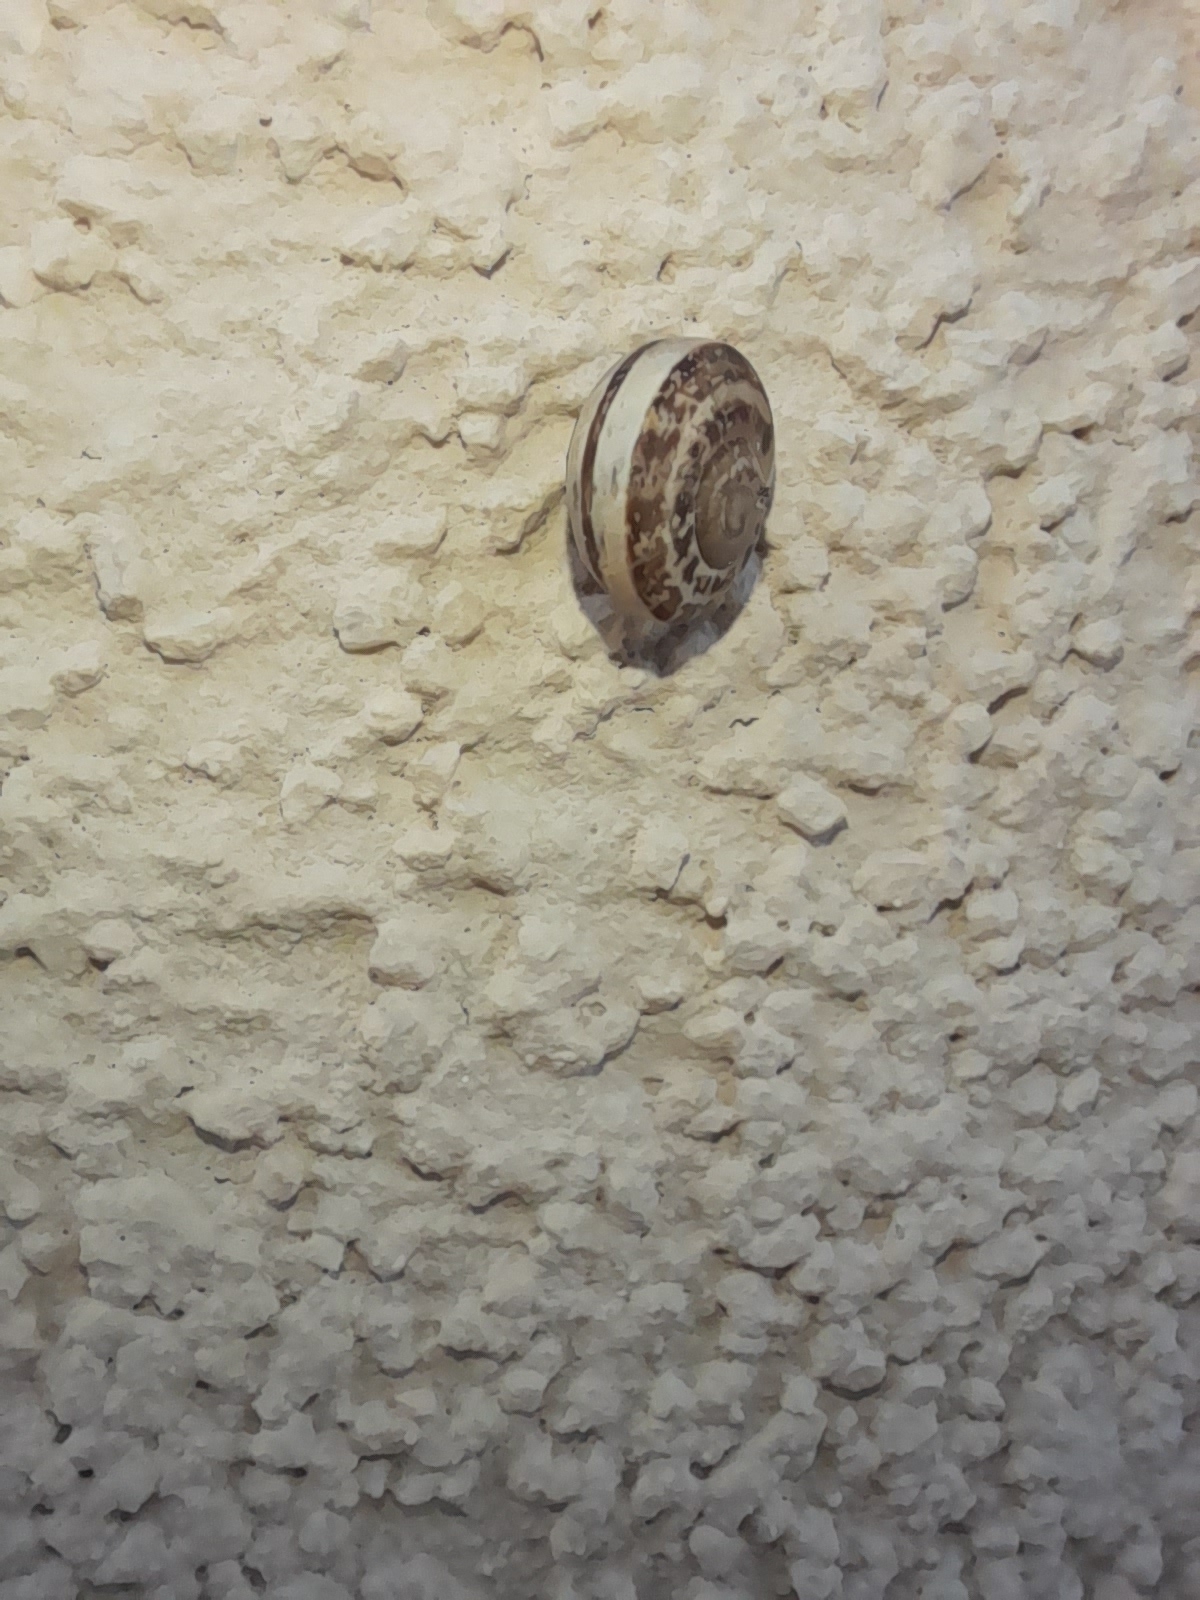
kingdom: Animalia
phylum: Mollusca
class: Gastropoda
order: Stylommatophora
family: Helicidae
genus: Eobania
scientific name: Eobania vermiculata
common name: Chocolateband snail
